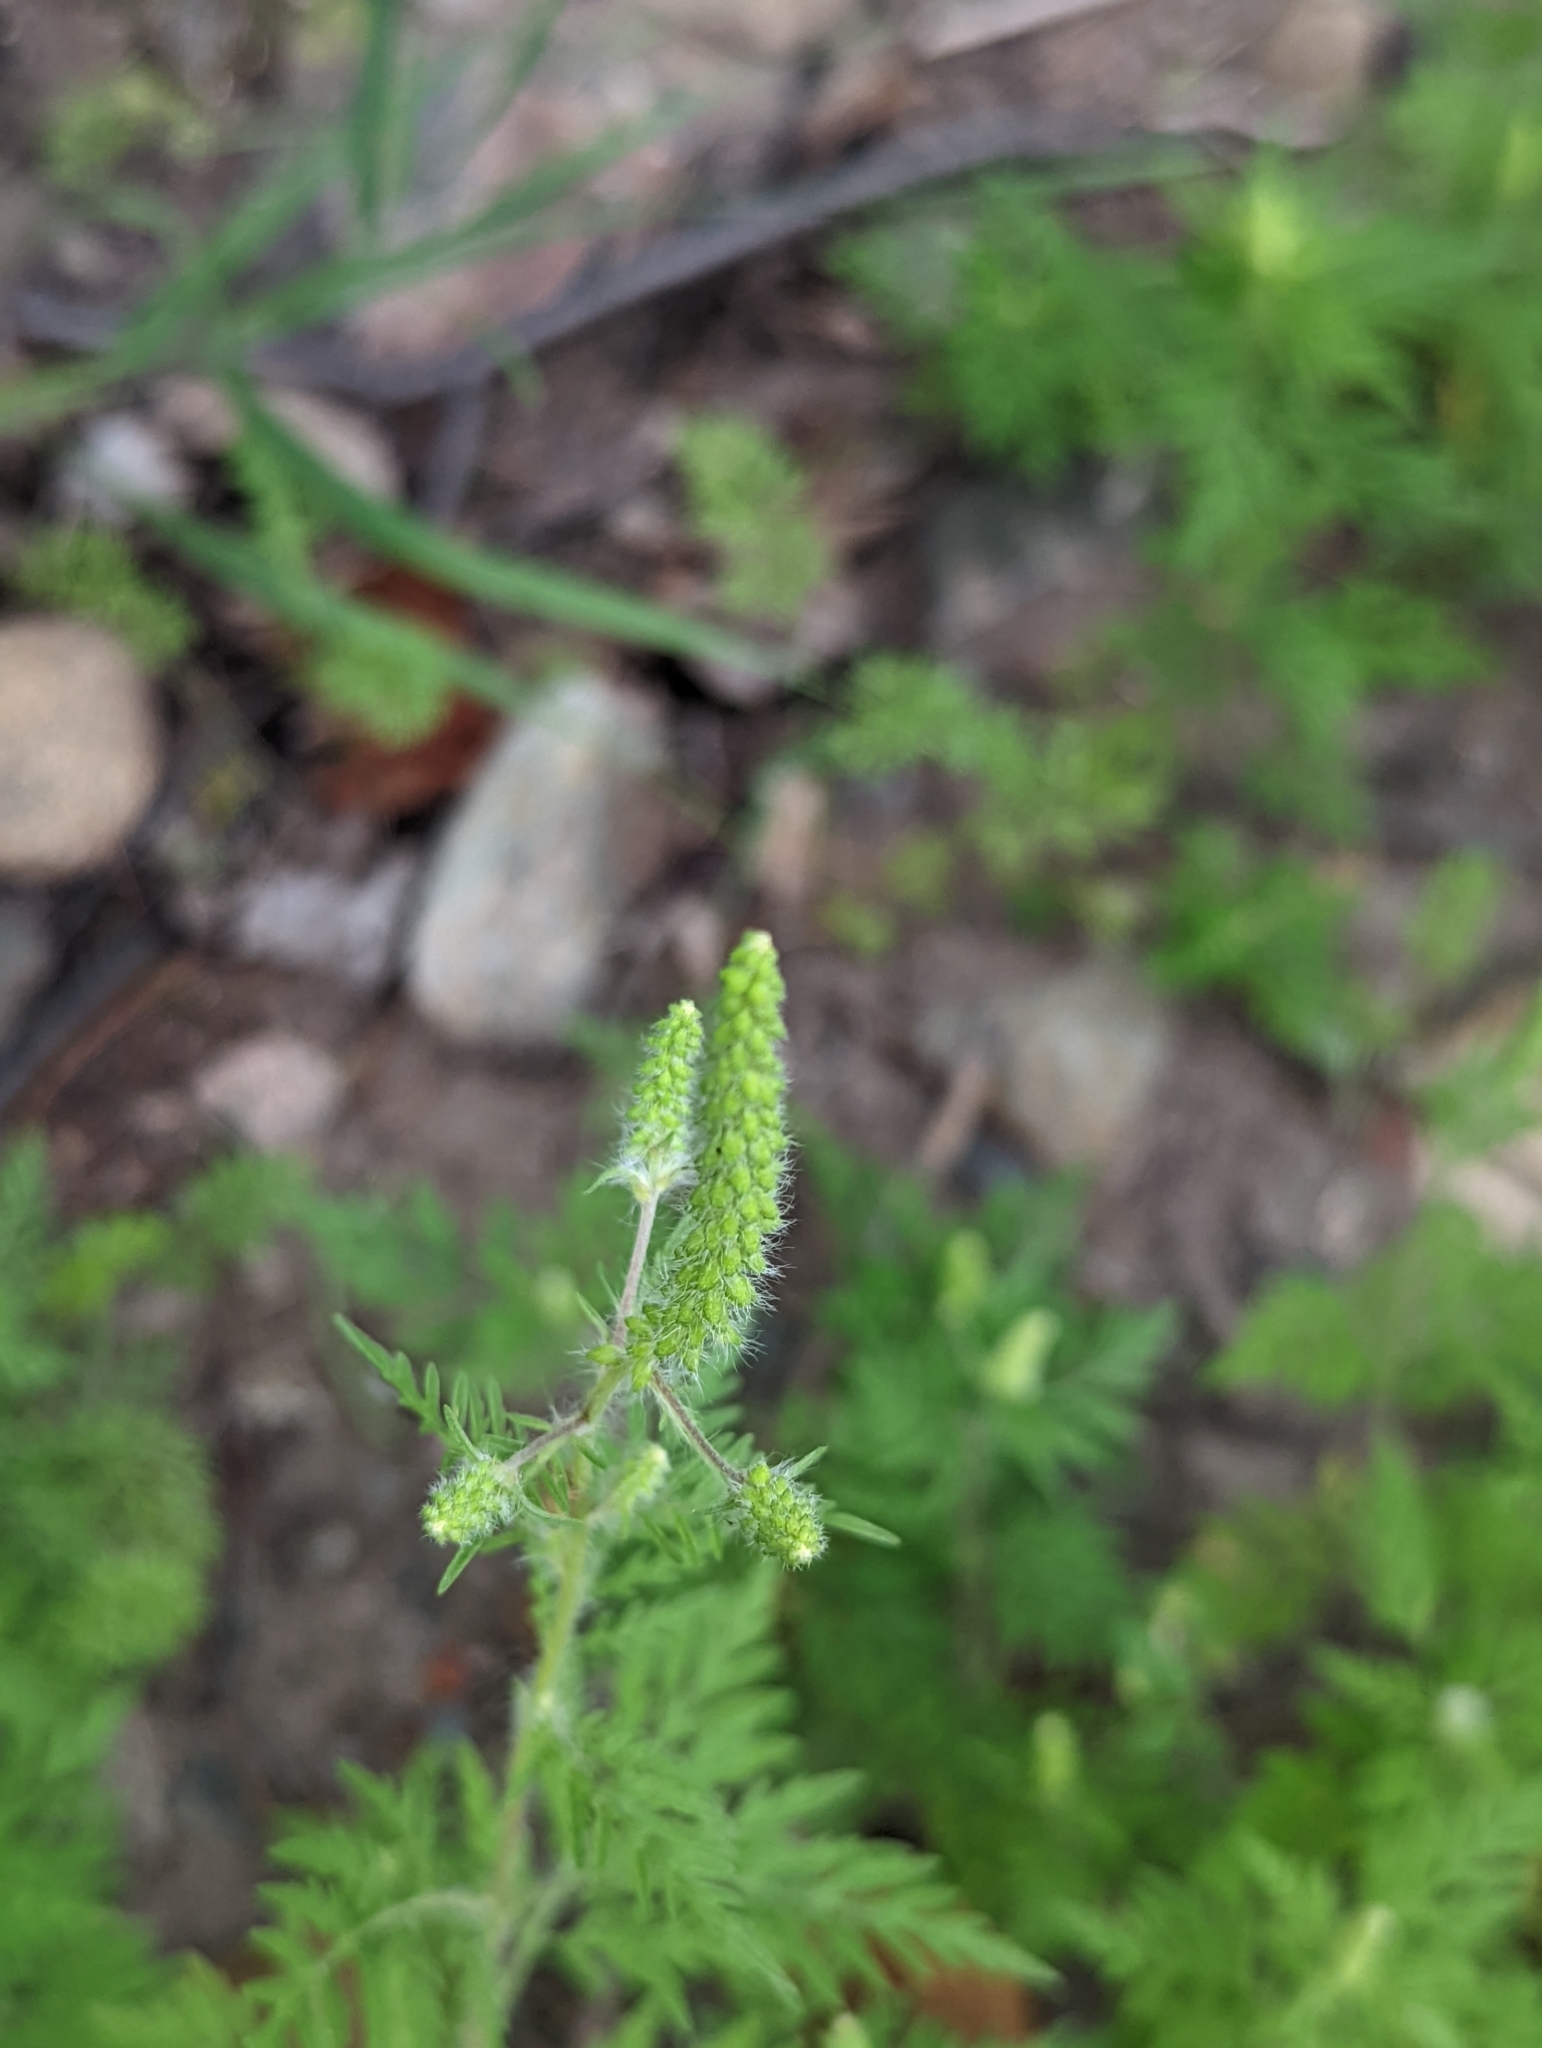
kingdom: Plantae
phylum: Tracheophyta
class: Magnoliopsida
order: Asterales
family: Asteraceae
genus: Ambrosia
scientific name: Ambrosia artemisiifolia
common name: Annual ragweed
